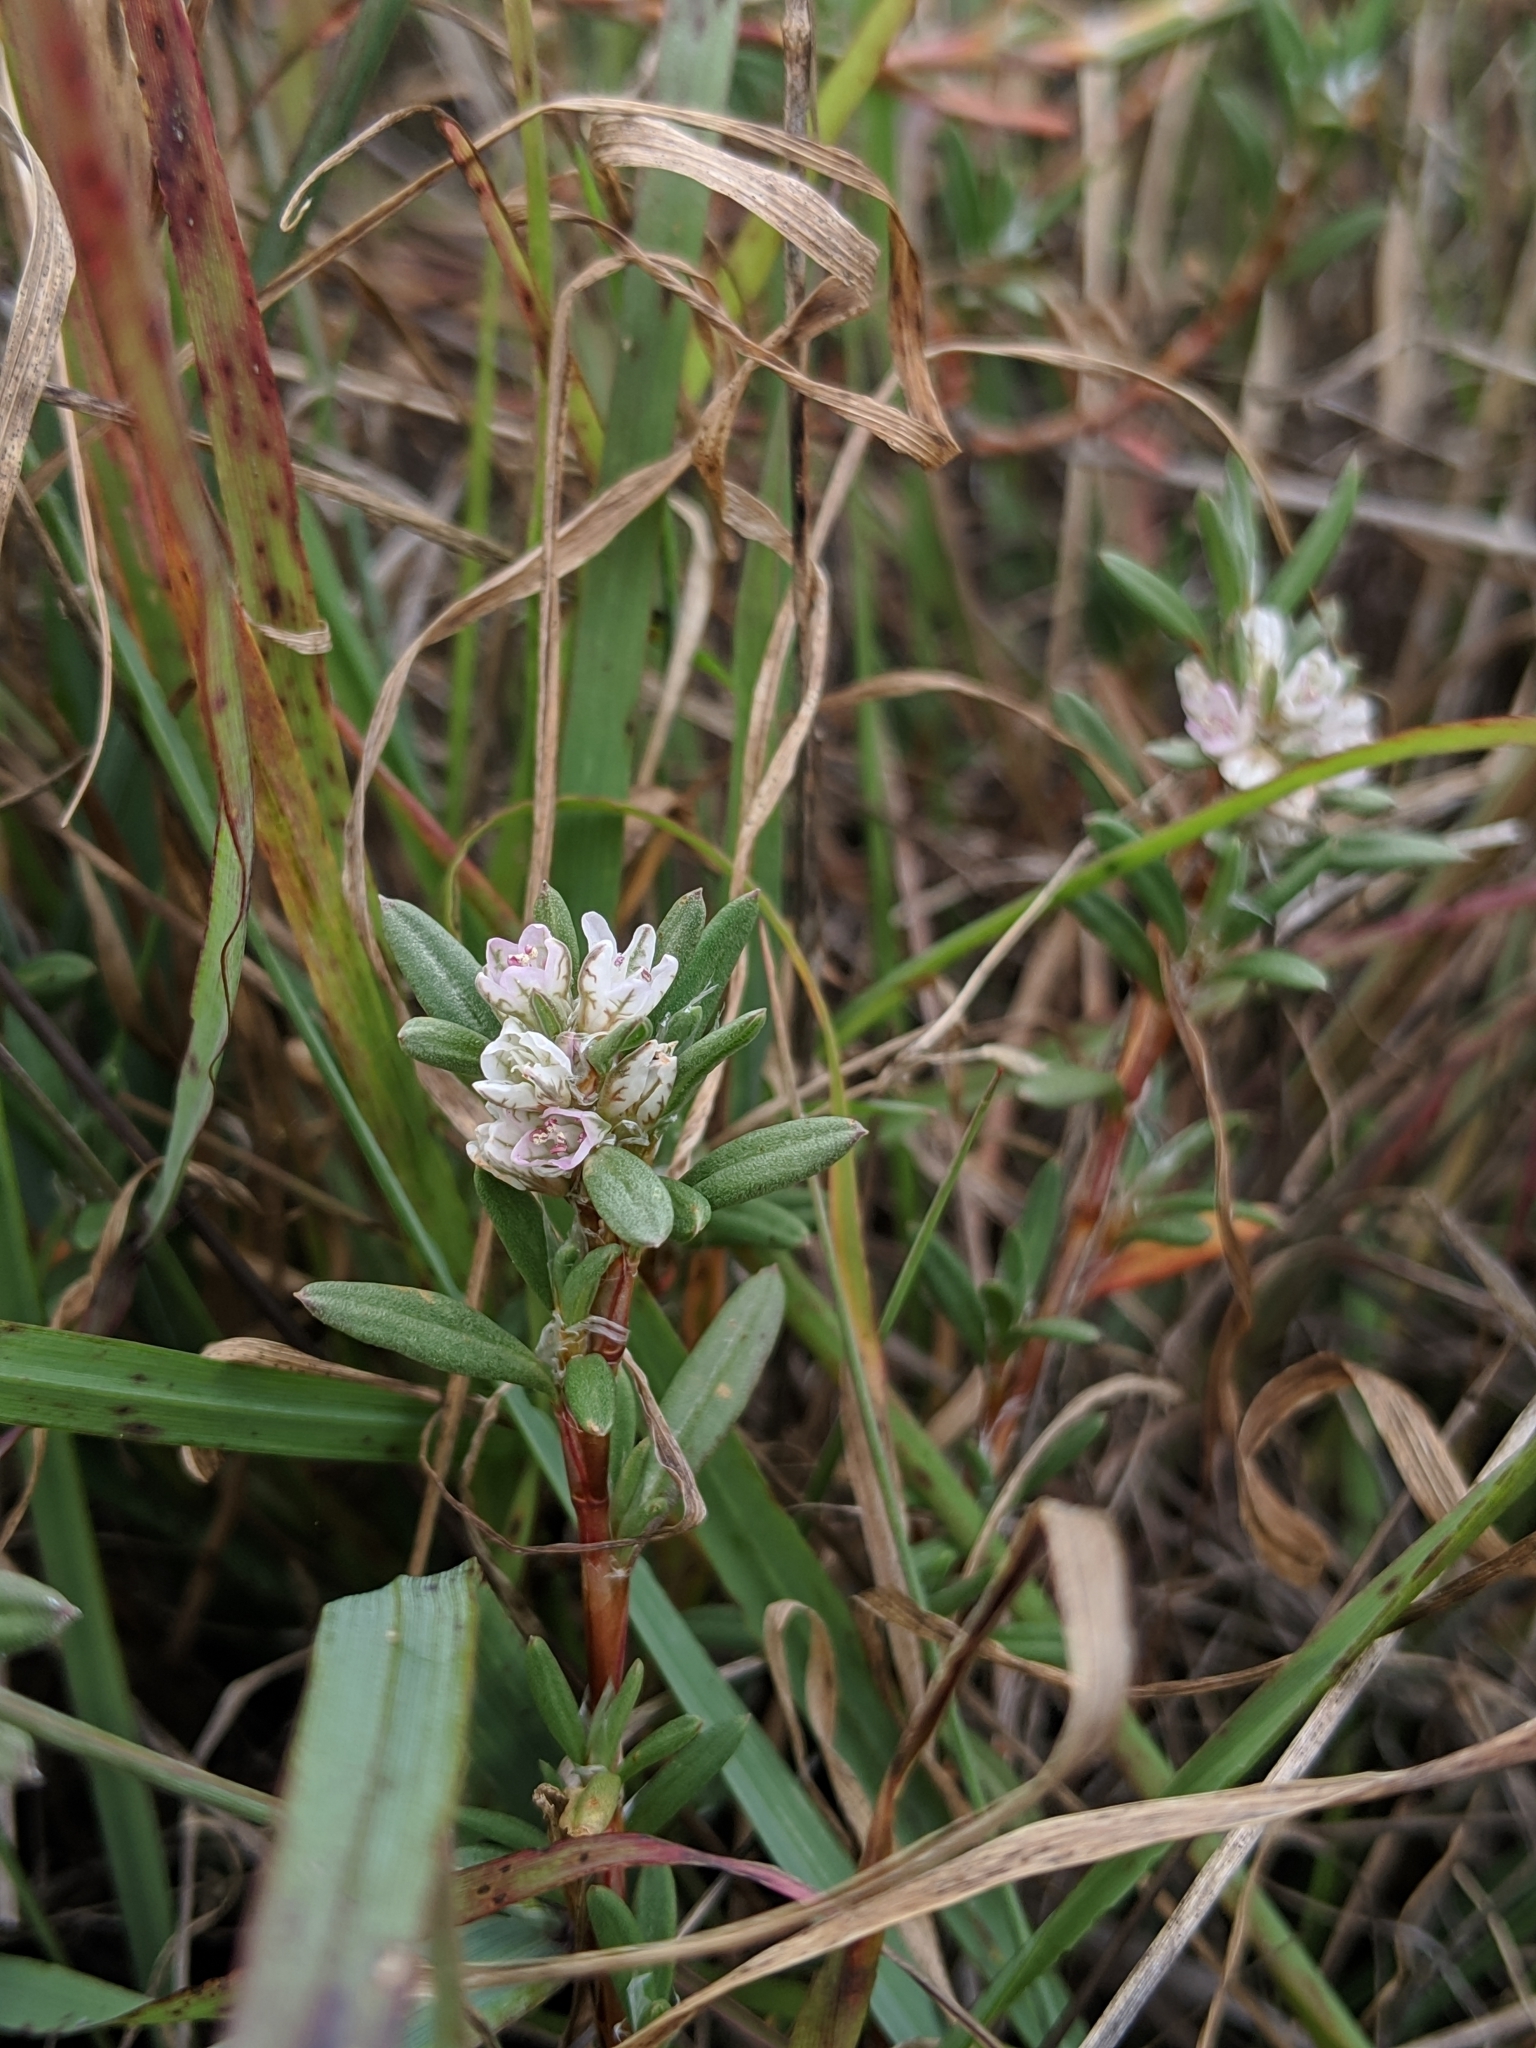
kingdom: Plantae
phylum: Tracheophyta
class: Magnoliopsida
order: Caryophyllales
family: Polygonaceae
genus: Polygonum
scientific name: Polygonum paronychia
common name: Dune knotweed
